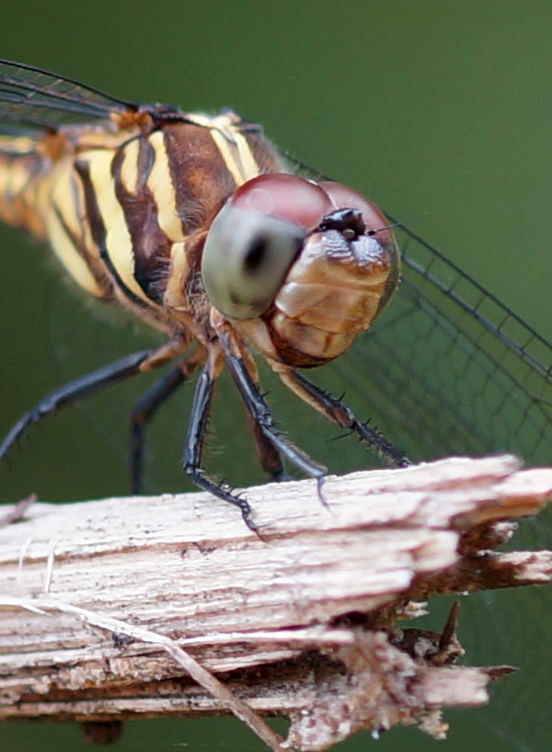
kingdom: Animalia
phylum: Arthropoda
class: Insecta
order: Odonata
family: Libellulidae
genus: Potamarcha
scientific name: Potamarcha congener
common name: Blue chaser
